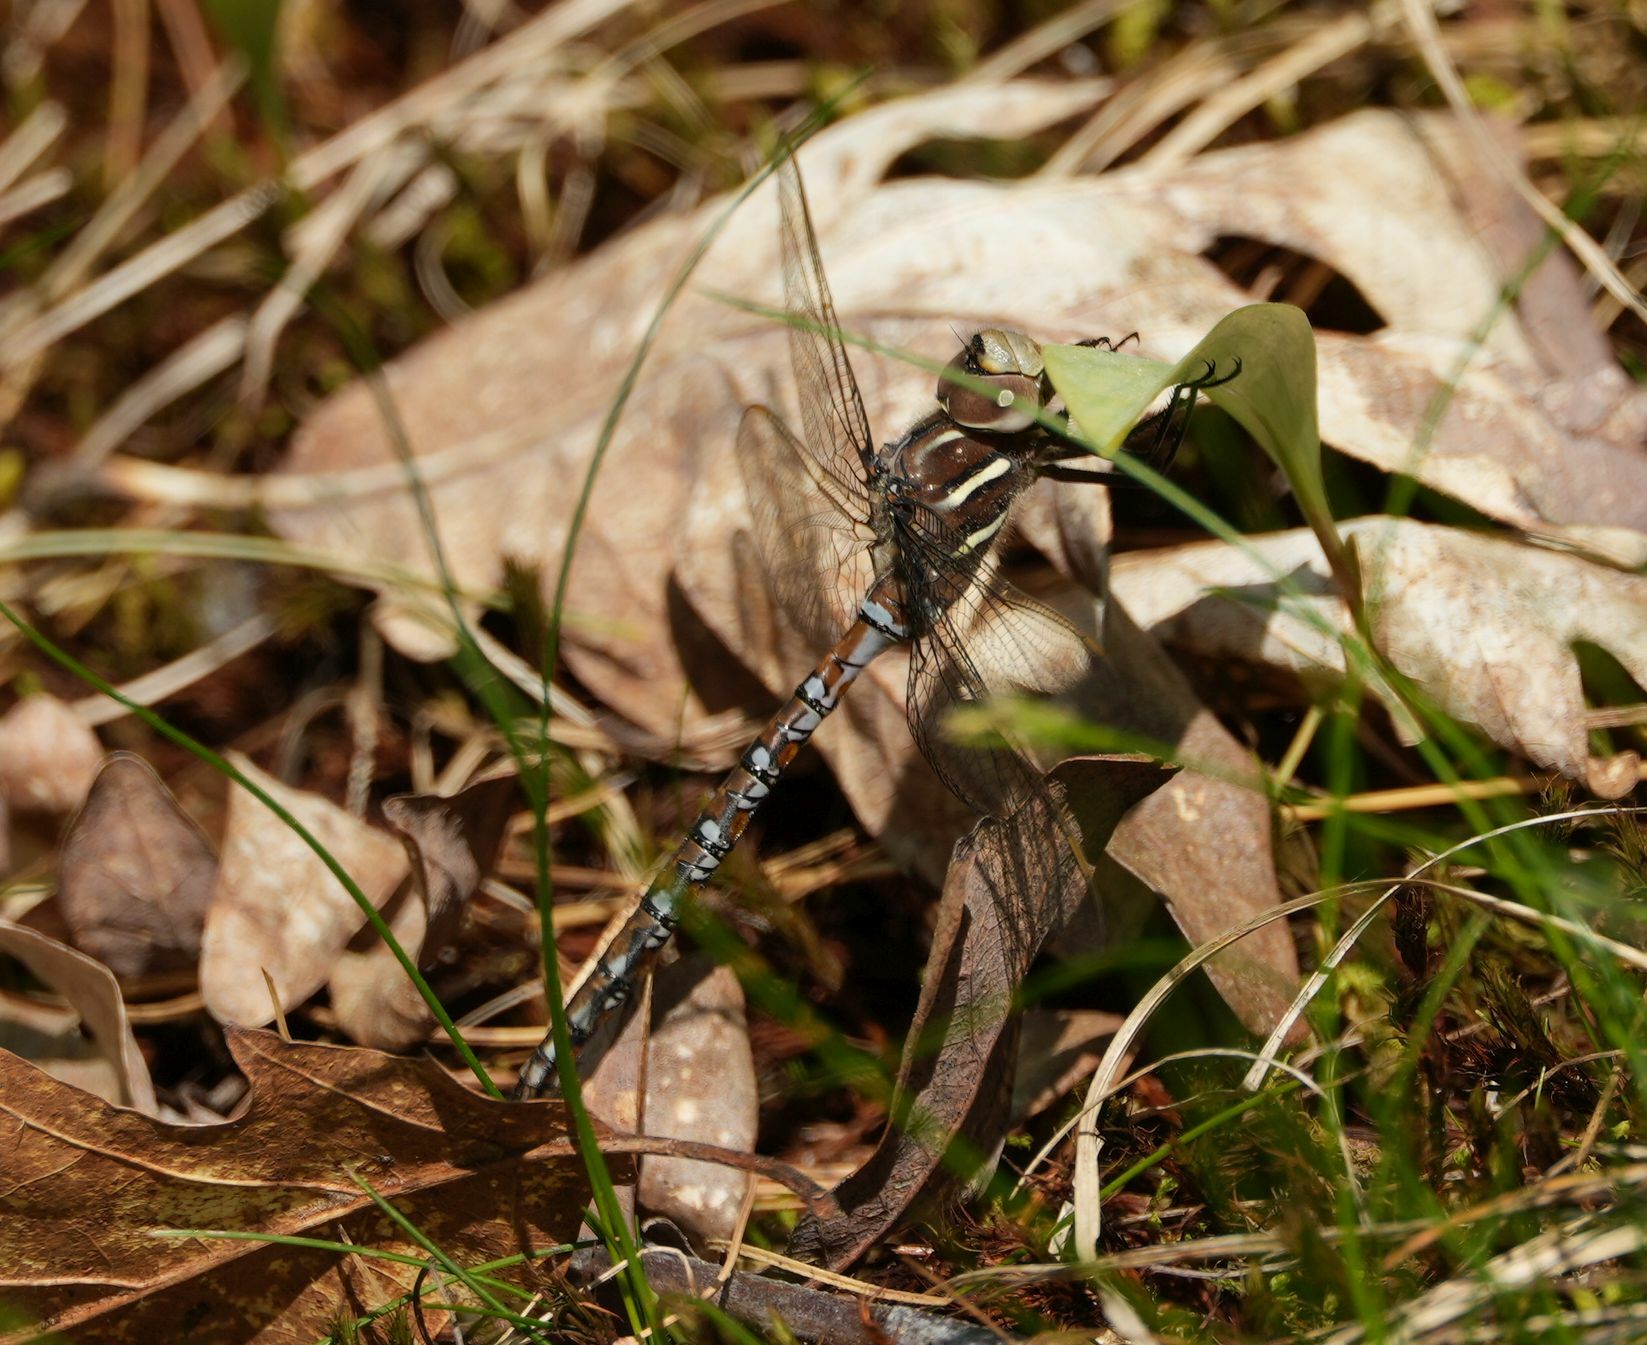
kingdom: Animalia
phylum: Arthropoda
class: Insecta
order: Odonata
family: Aeshnidae
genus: Basiaeschna
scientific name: Basiaeschna janata
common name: Springtime darner
